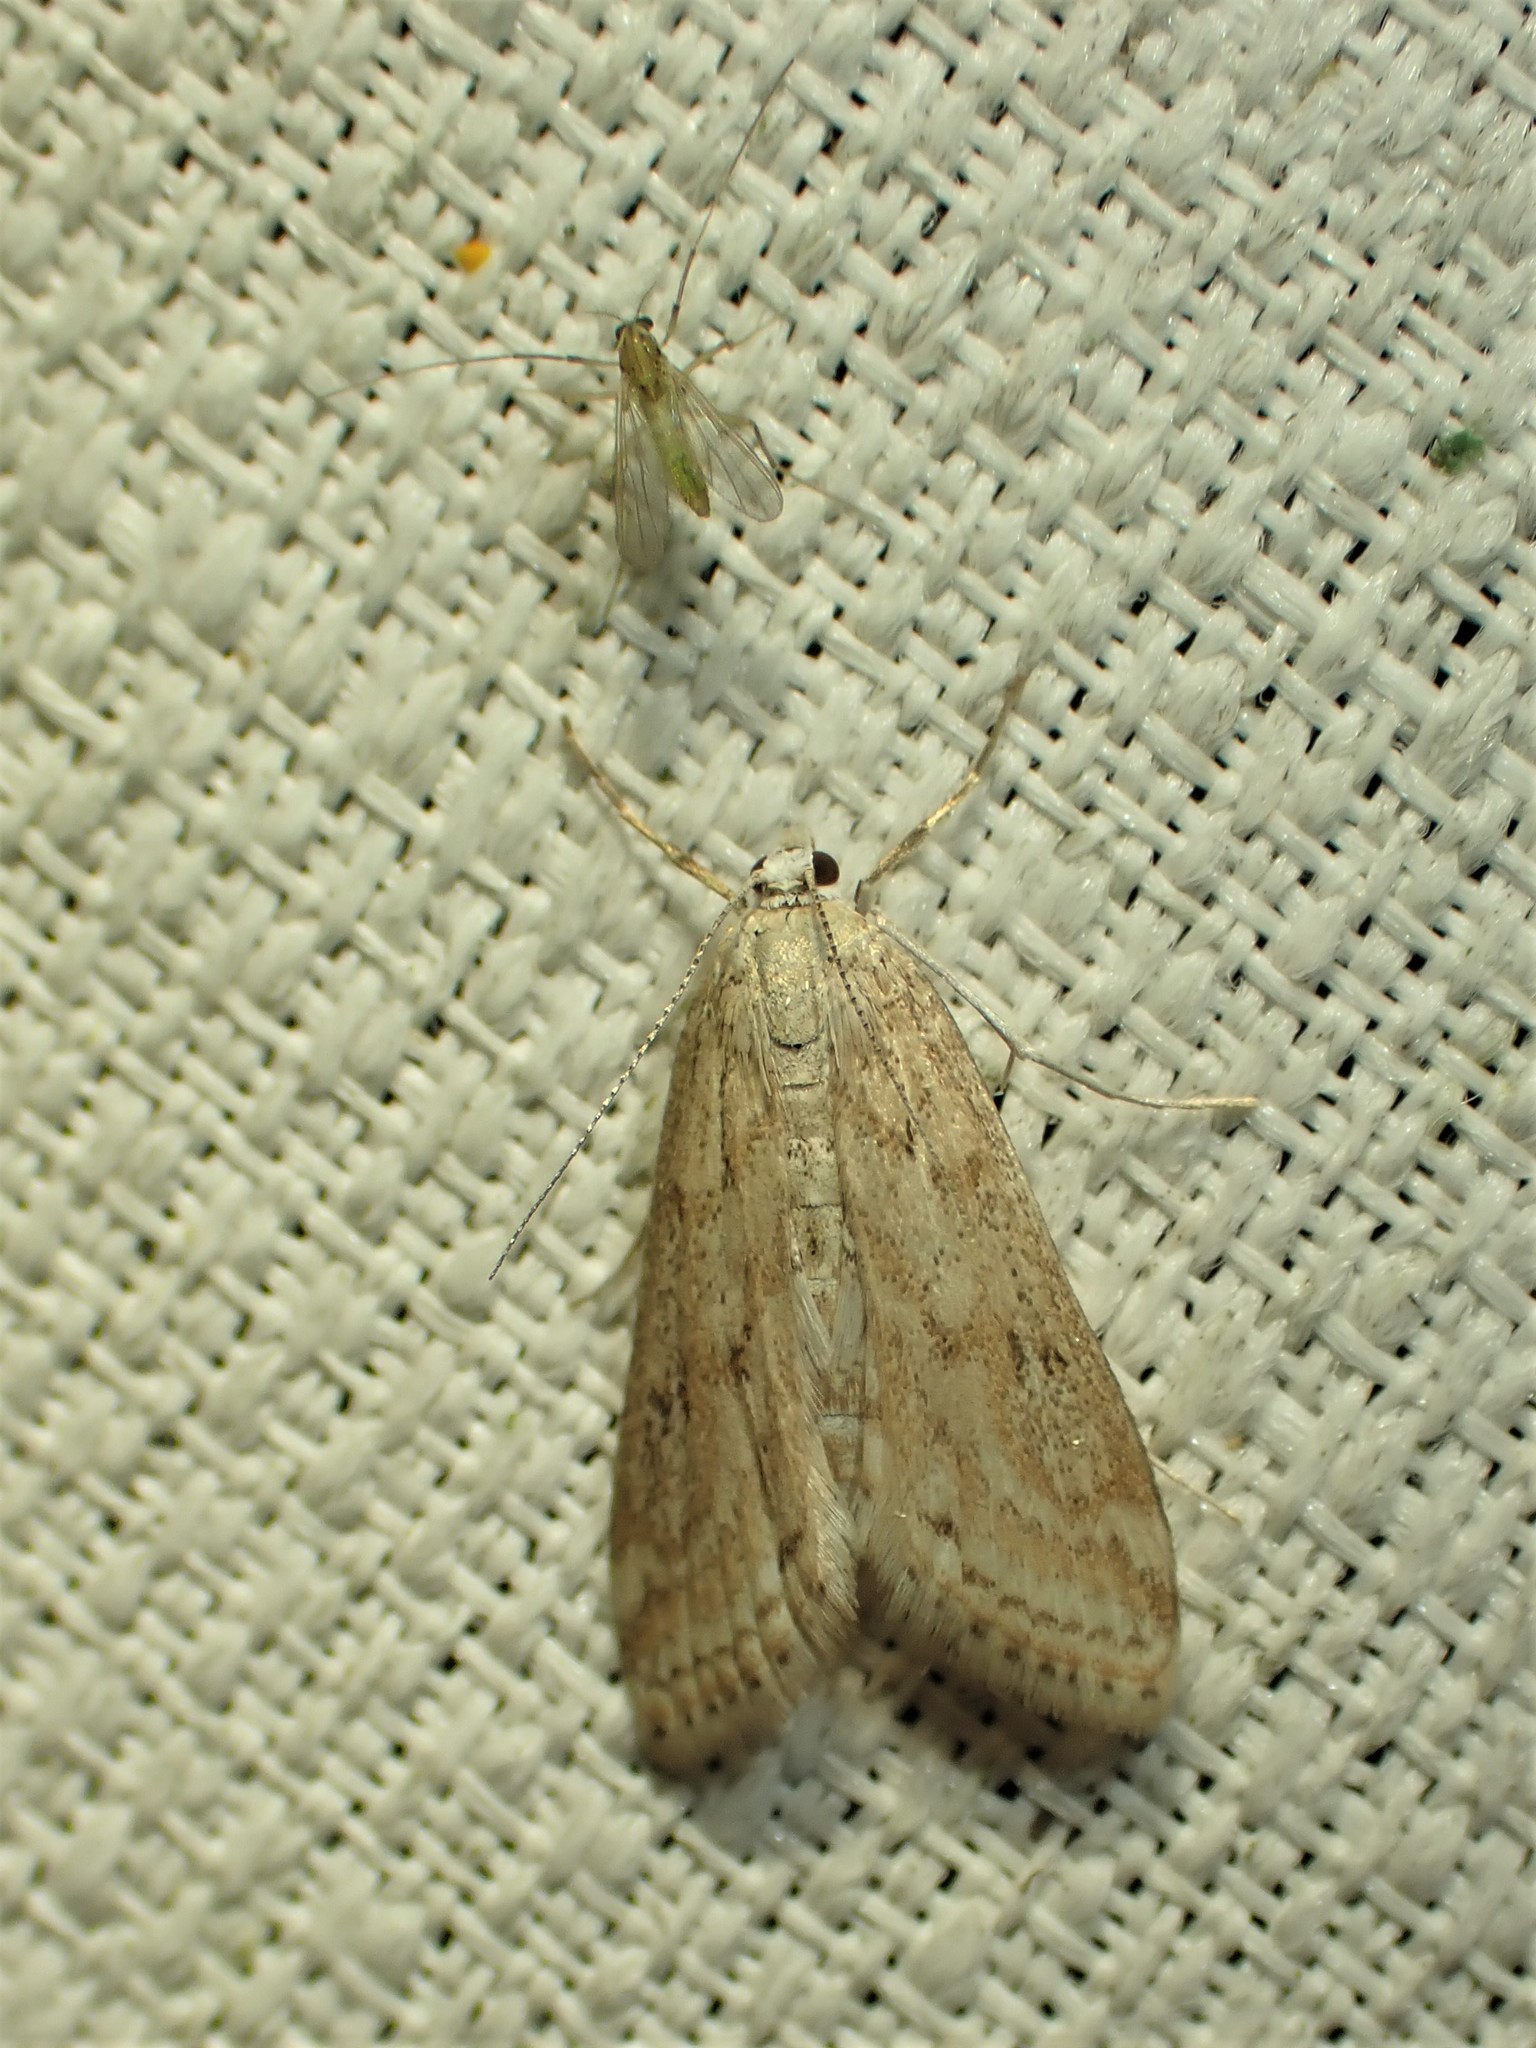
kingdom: Animalia
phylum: Arthropoda
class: Insecta
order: Lepidoptera
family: Crambidae
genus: Parapoynx
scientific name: Parapoynx allionealis
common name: Bladderwort casemaker
